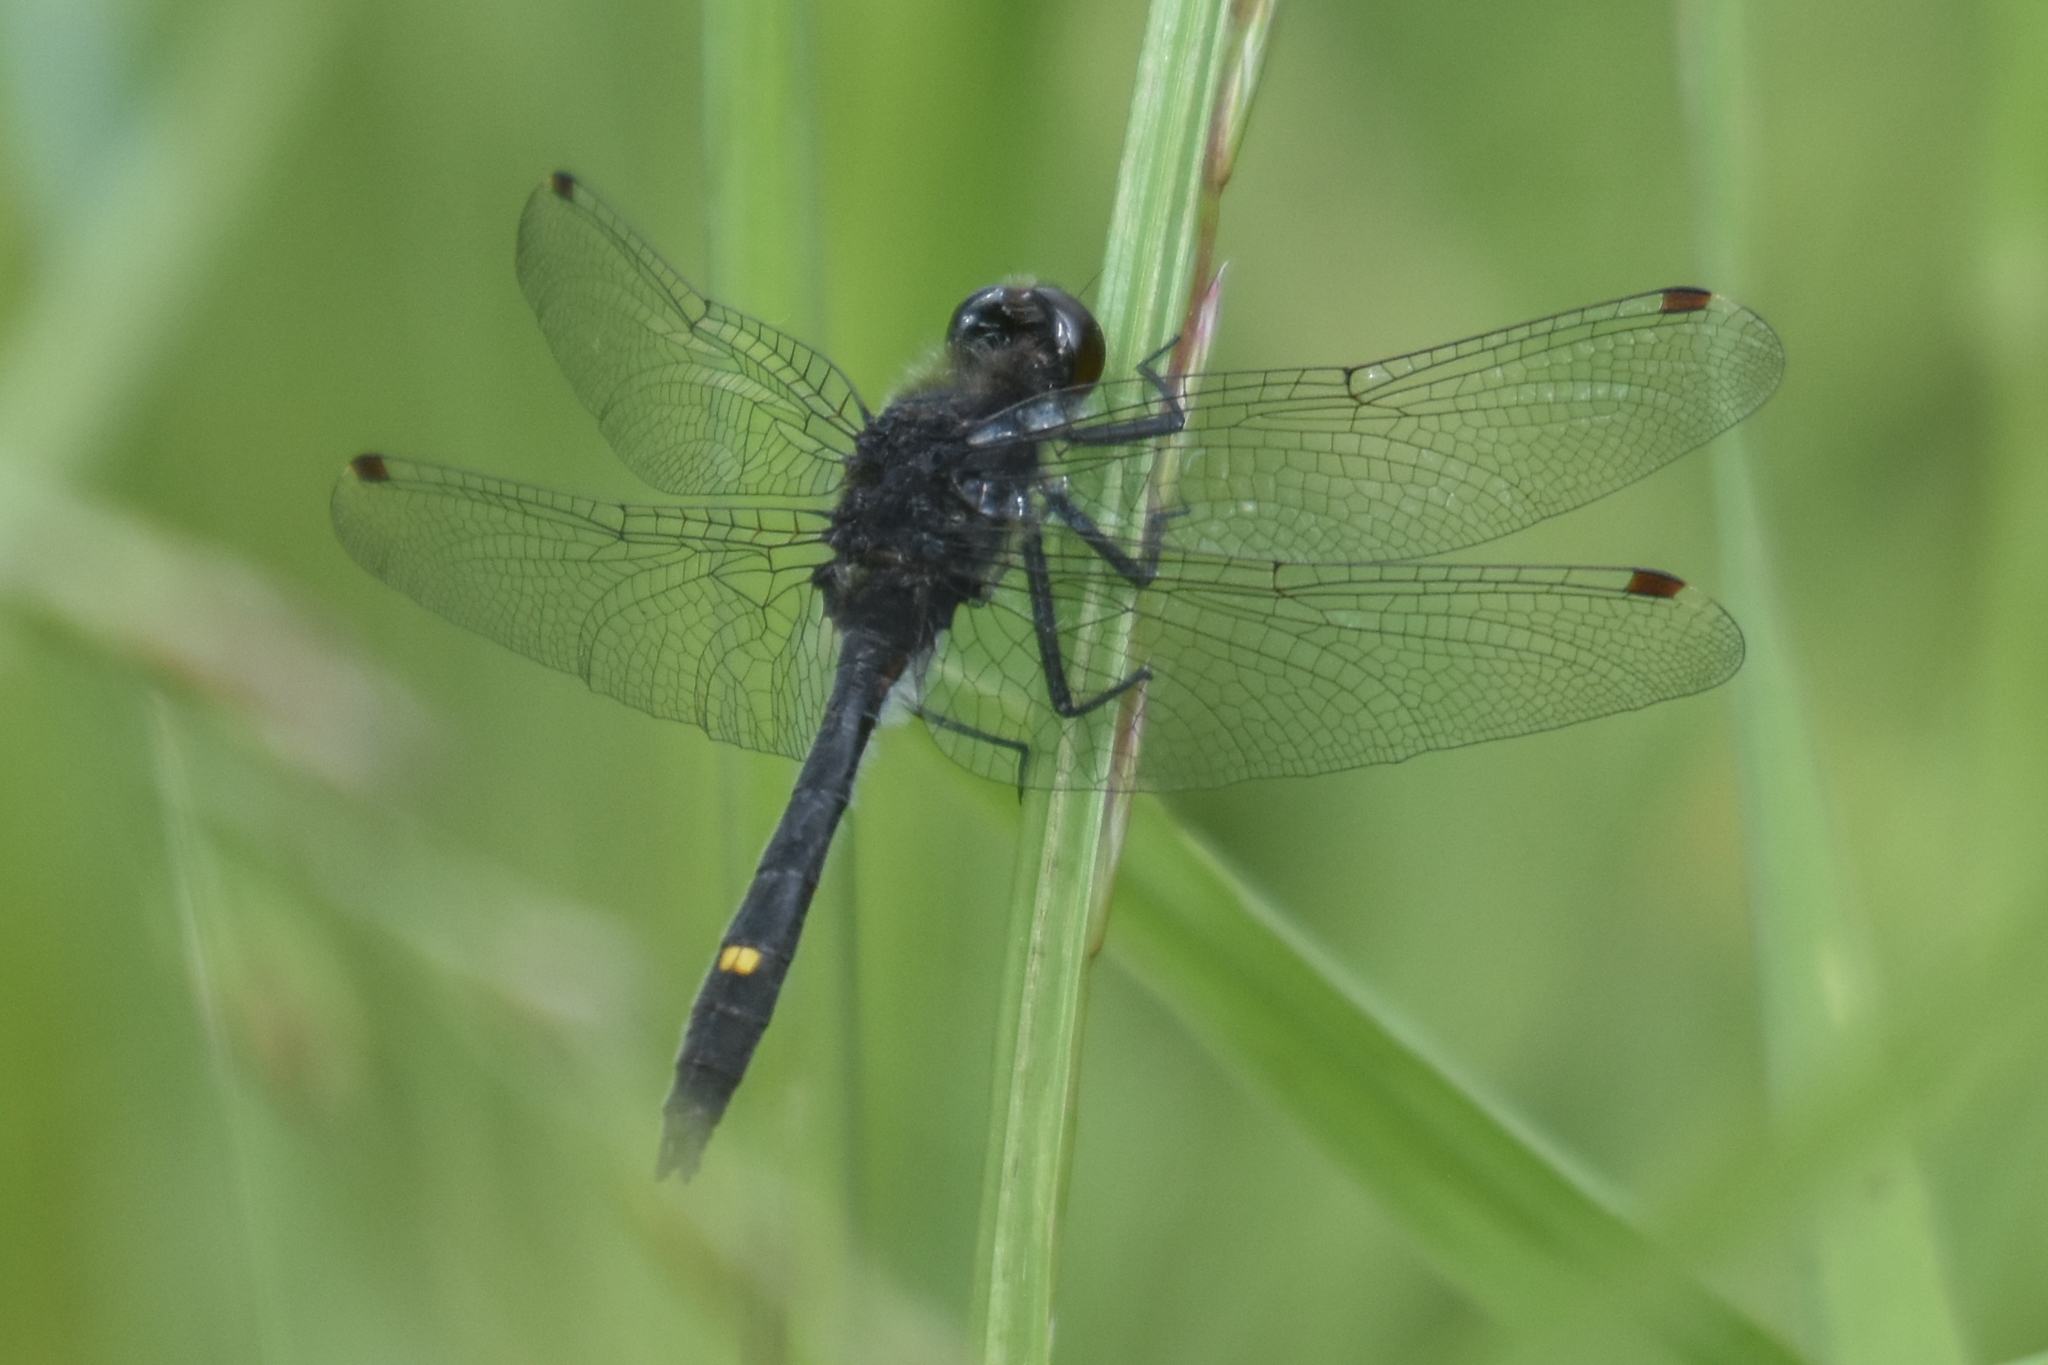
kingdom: Animalia
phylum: Arthropoda
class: Insecta
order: Odonata
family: Libellulidae
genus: Leucorrhinia
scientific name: Leucorrhinia intacta
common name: Dot-tailed whiteface
